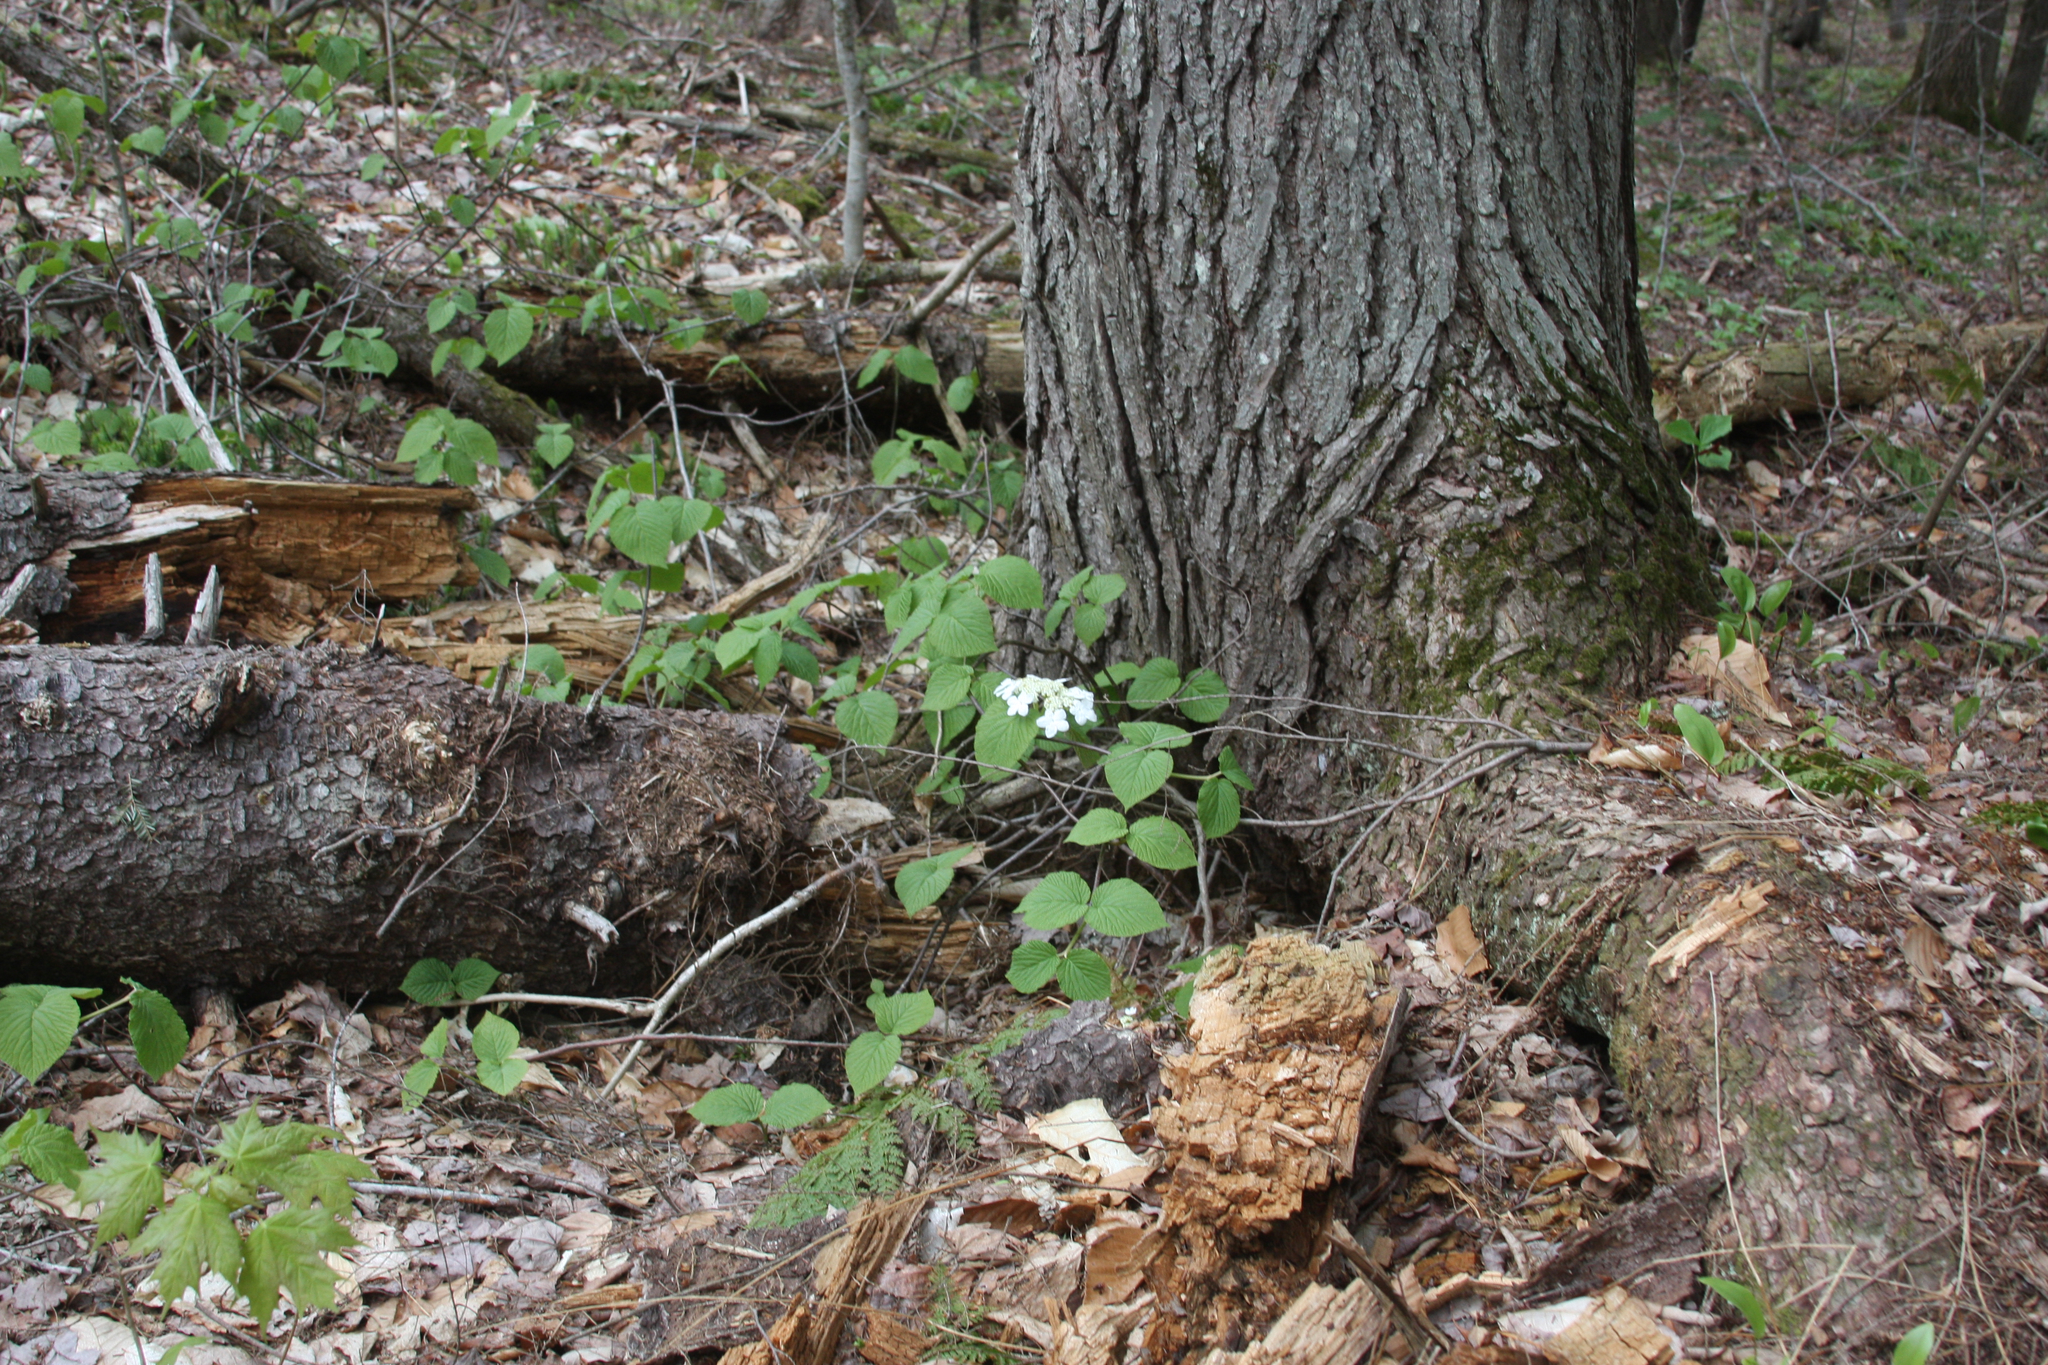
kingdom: Plantae
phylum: Tracheophyta
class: Magnoliopsida
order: Dipsacales
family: Viburnaceae
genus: Viburnum
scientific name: Viburnum lantanoides
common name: Hobblebush
